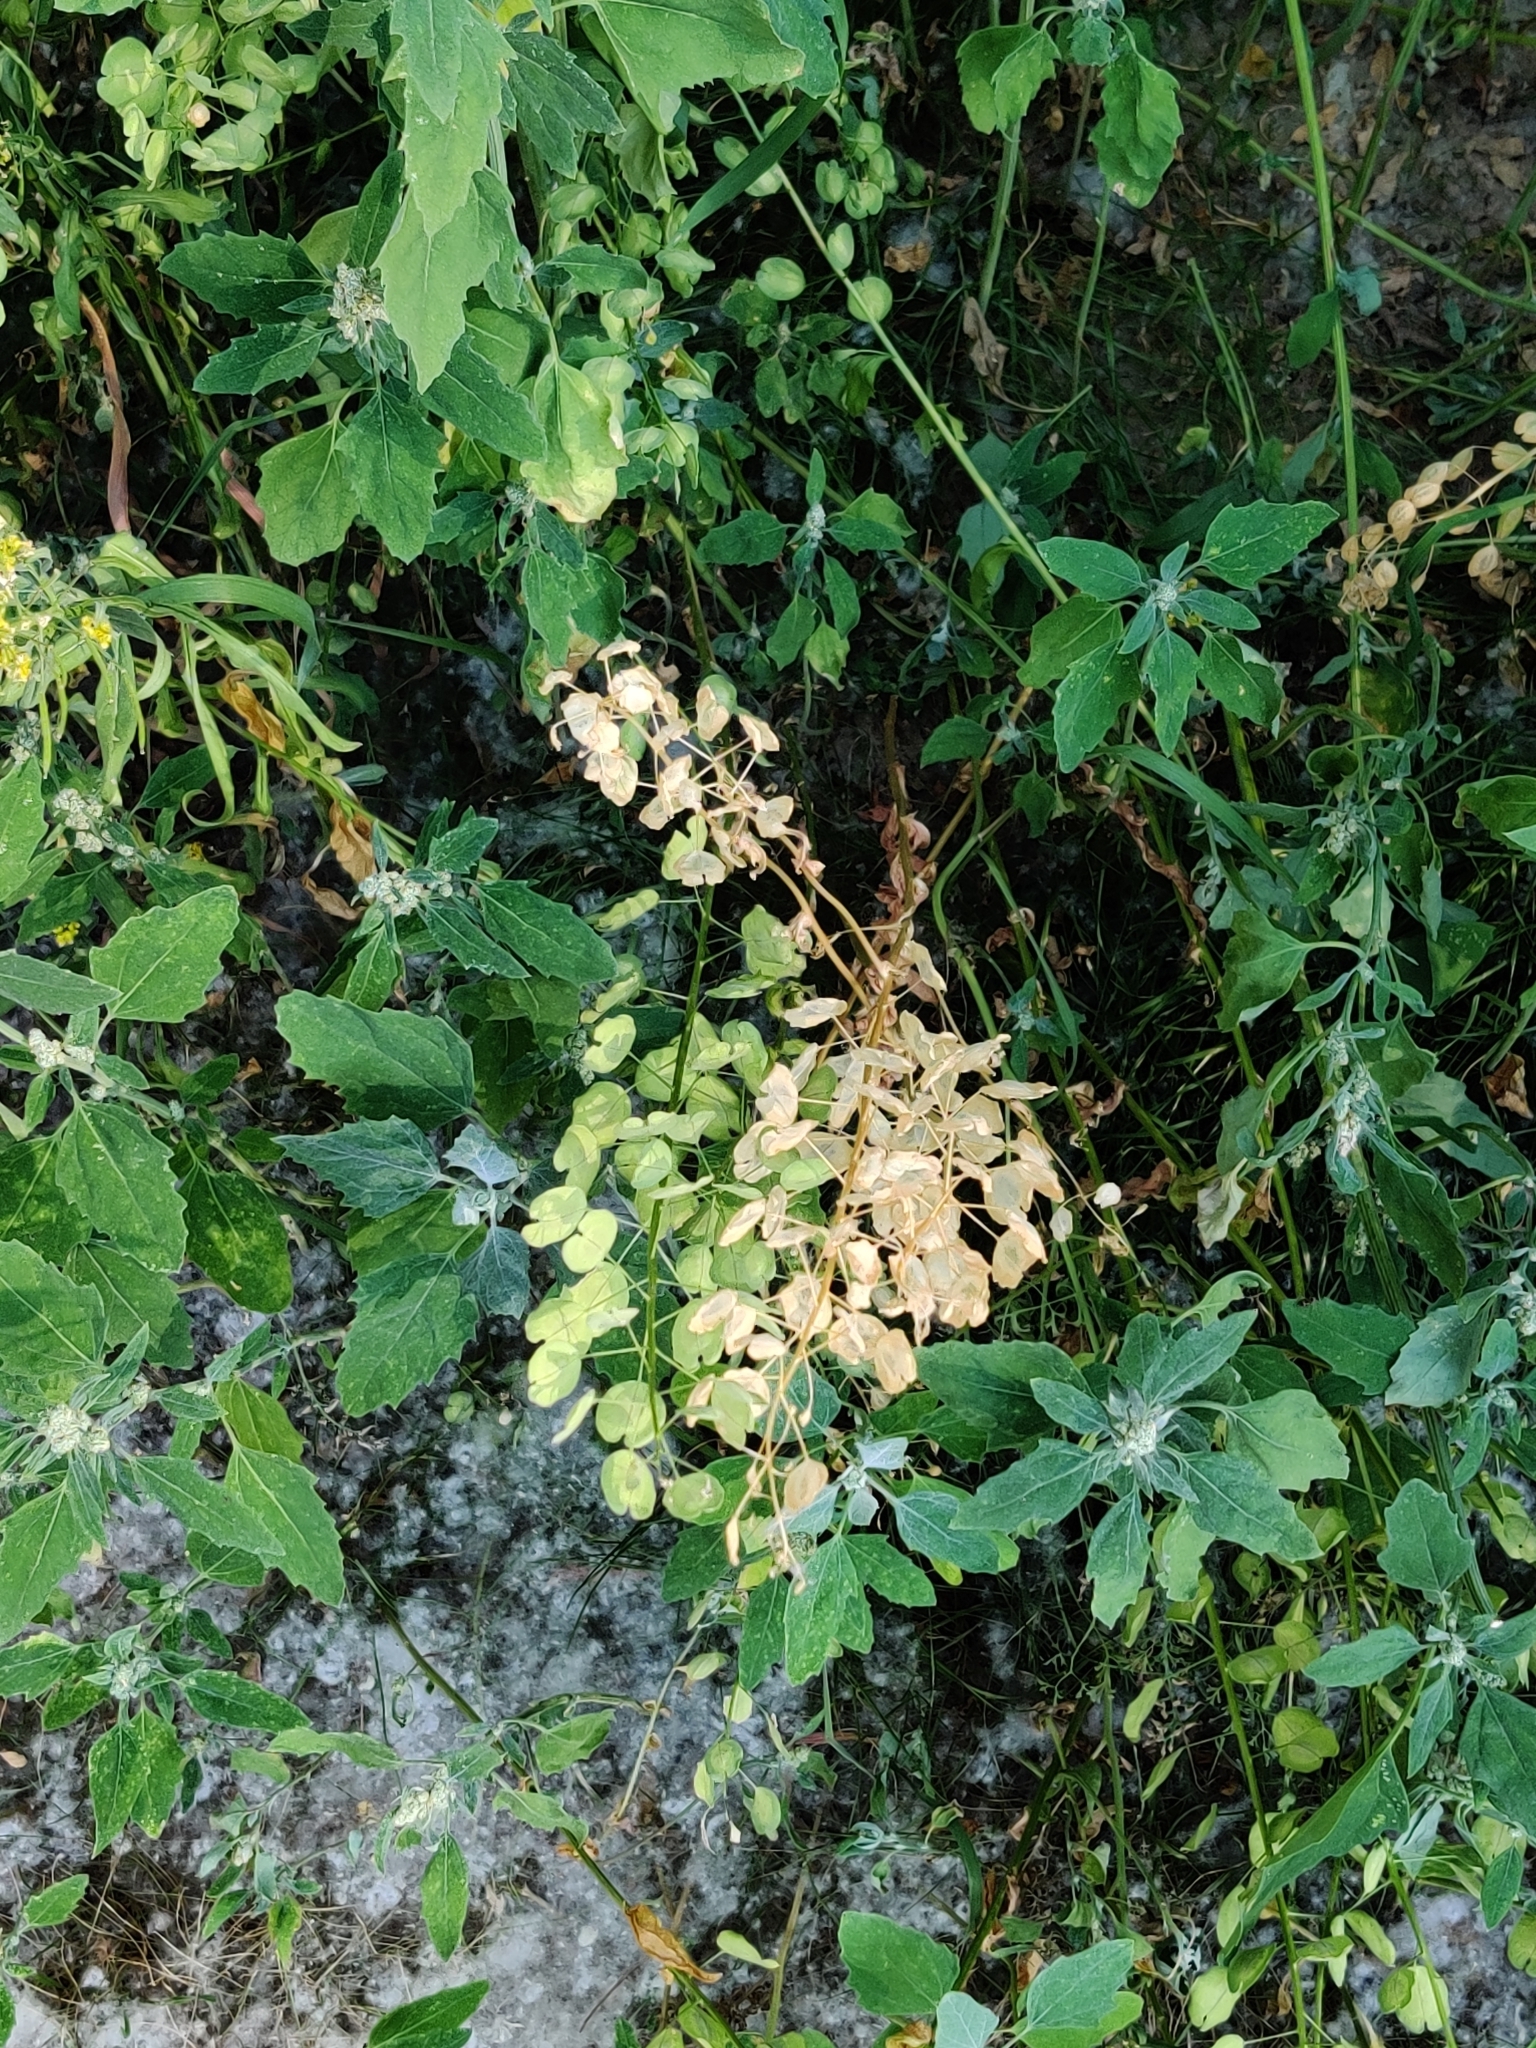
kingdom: Plantae
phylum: Tracheophyta
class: Magnoliopsida
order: Brassicales
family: Brassicaceae
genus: Thlaspi
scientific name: Thlaspi arvense
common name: Field pennycress
